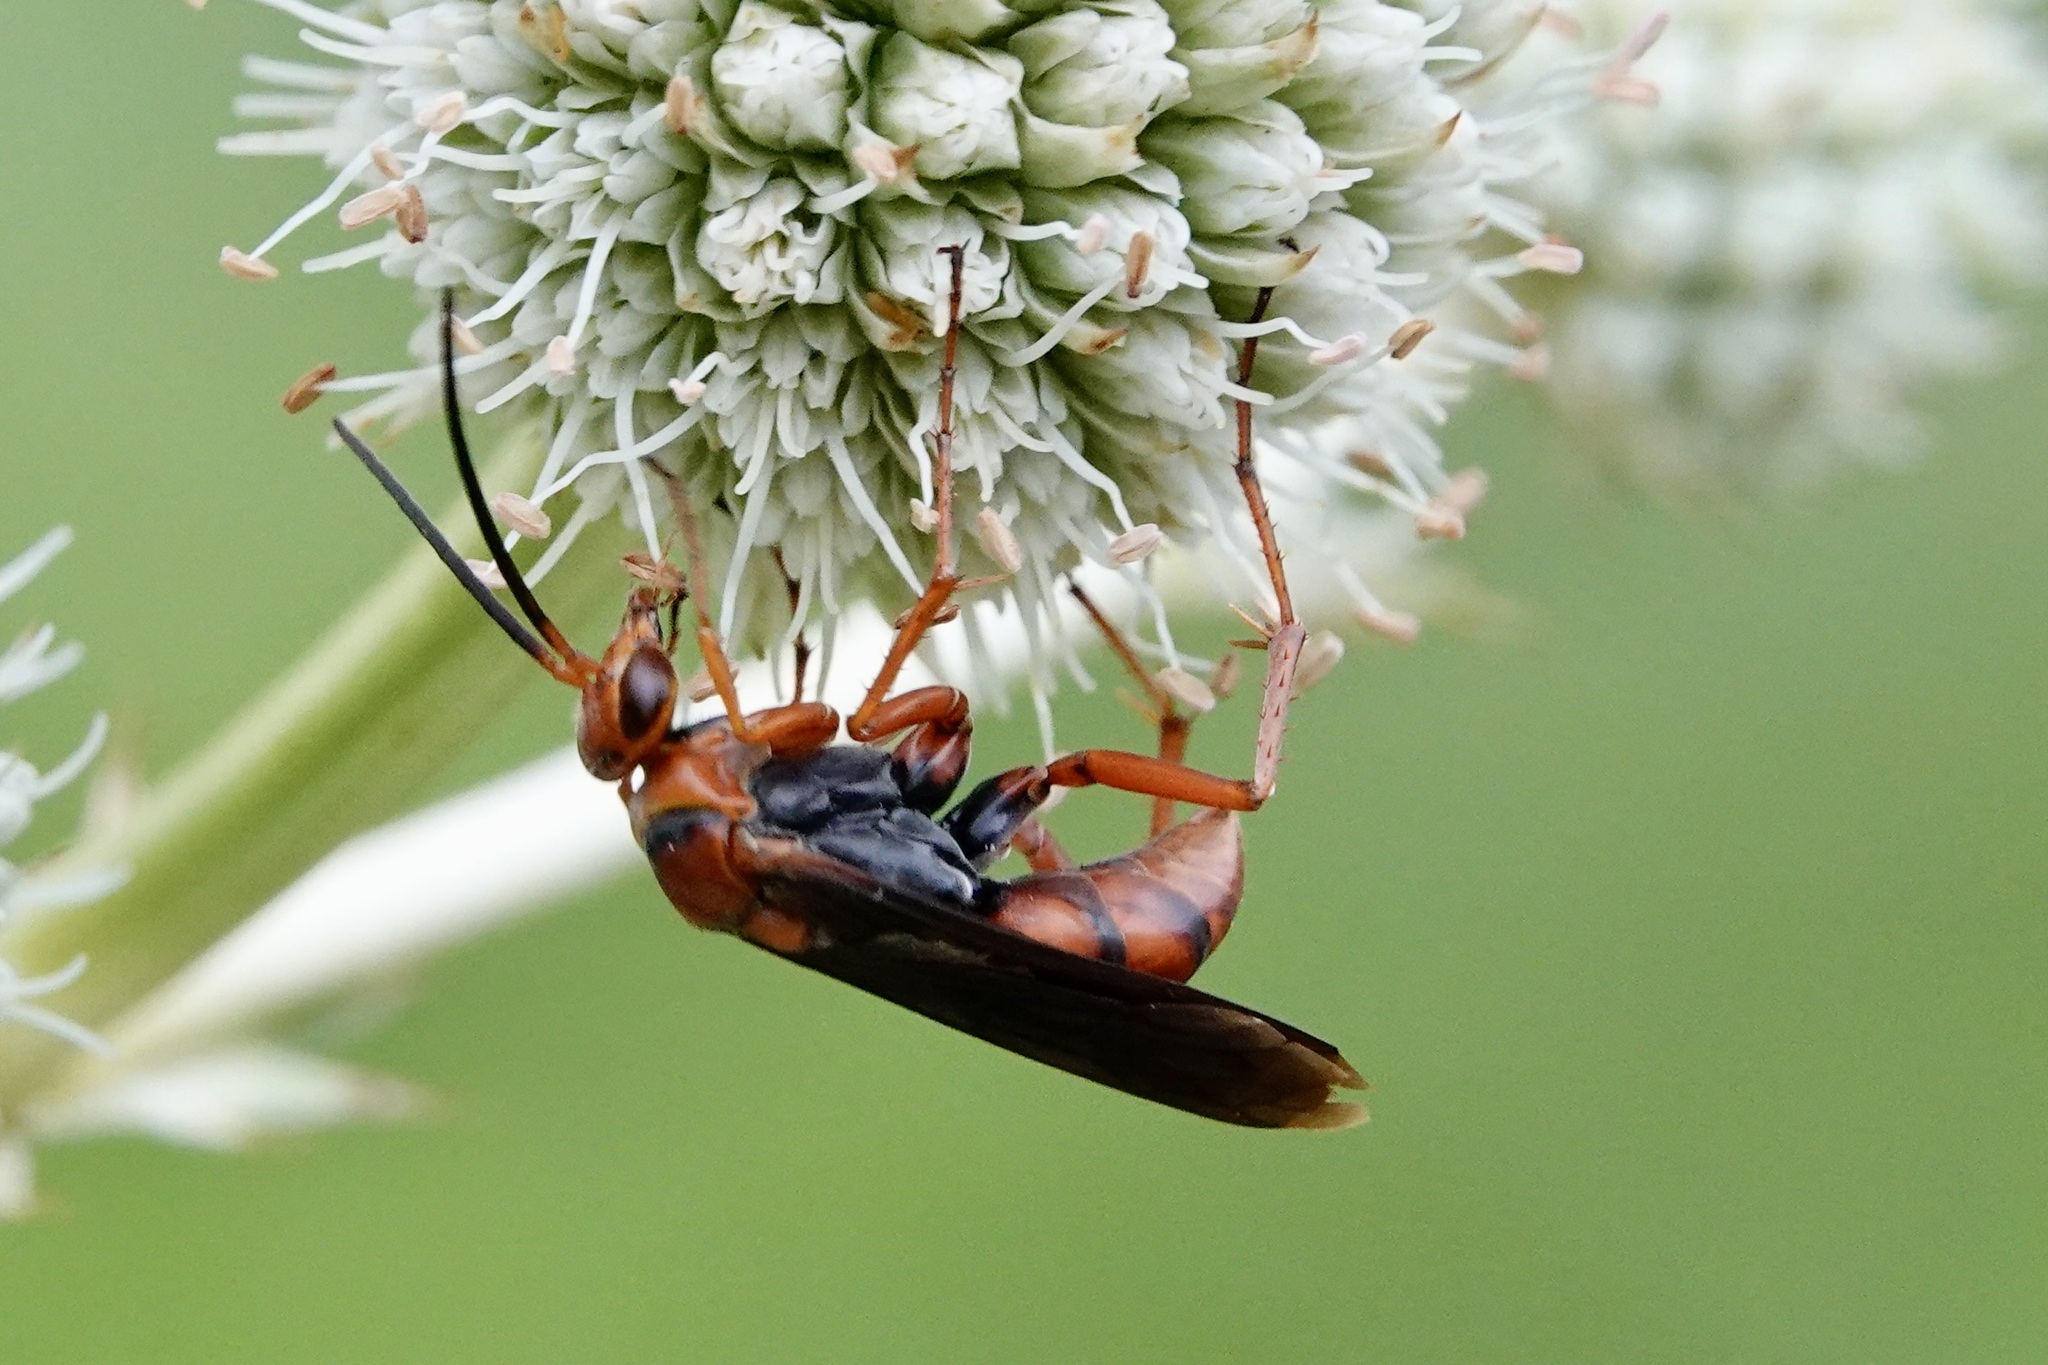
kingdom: Animalia
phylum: Arthropoda
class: Insecta
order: Hymenoptera
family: Pompilidae
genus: Tachypompilus
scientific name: Tachypompilus ferrugineus
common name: Rusty spider wasp
